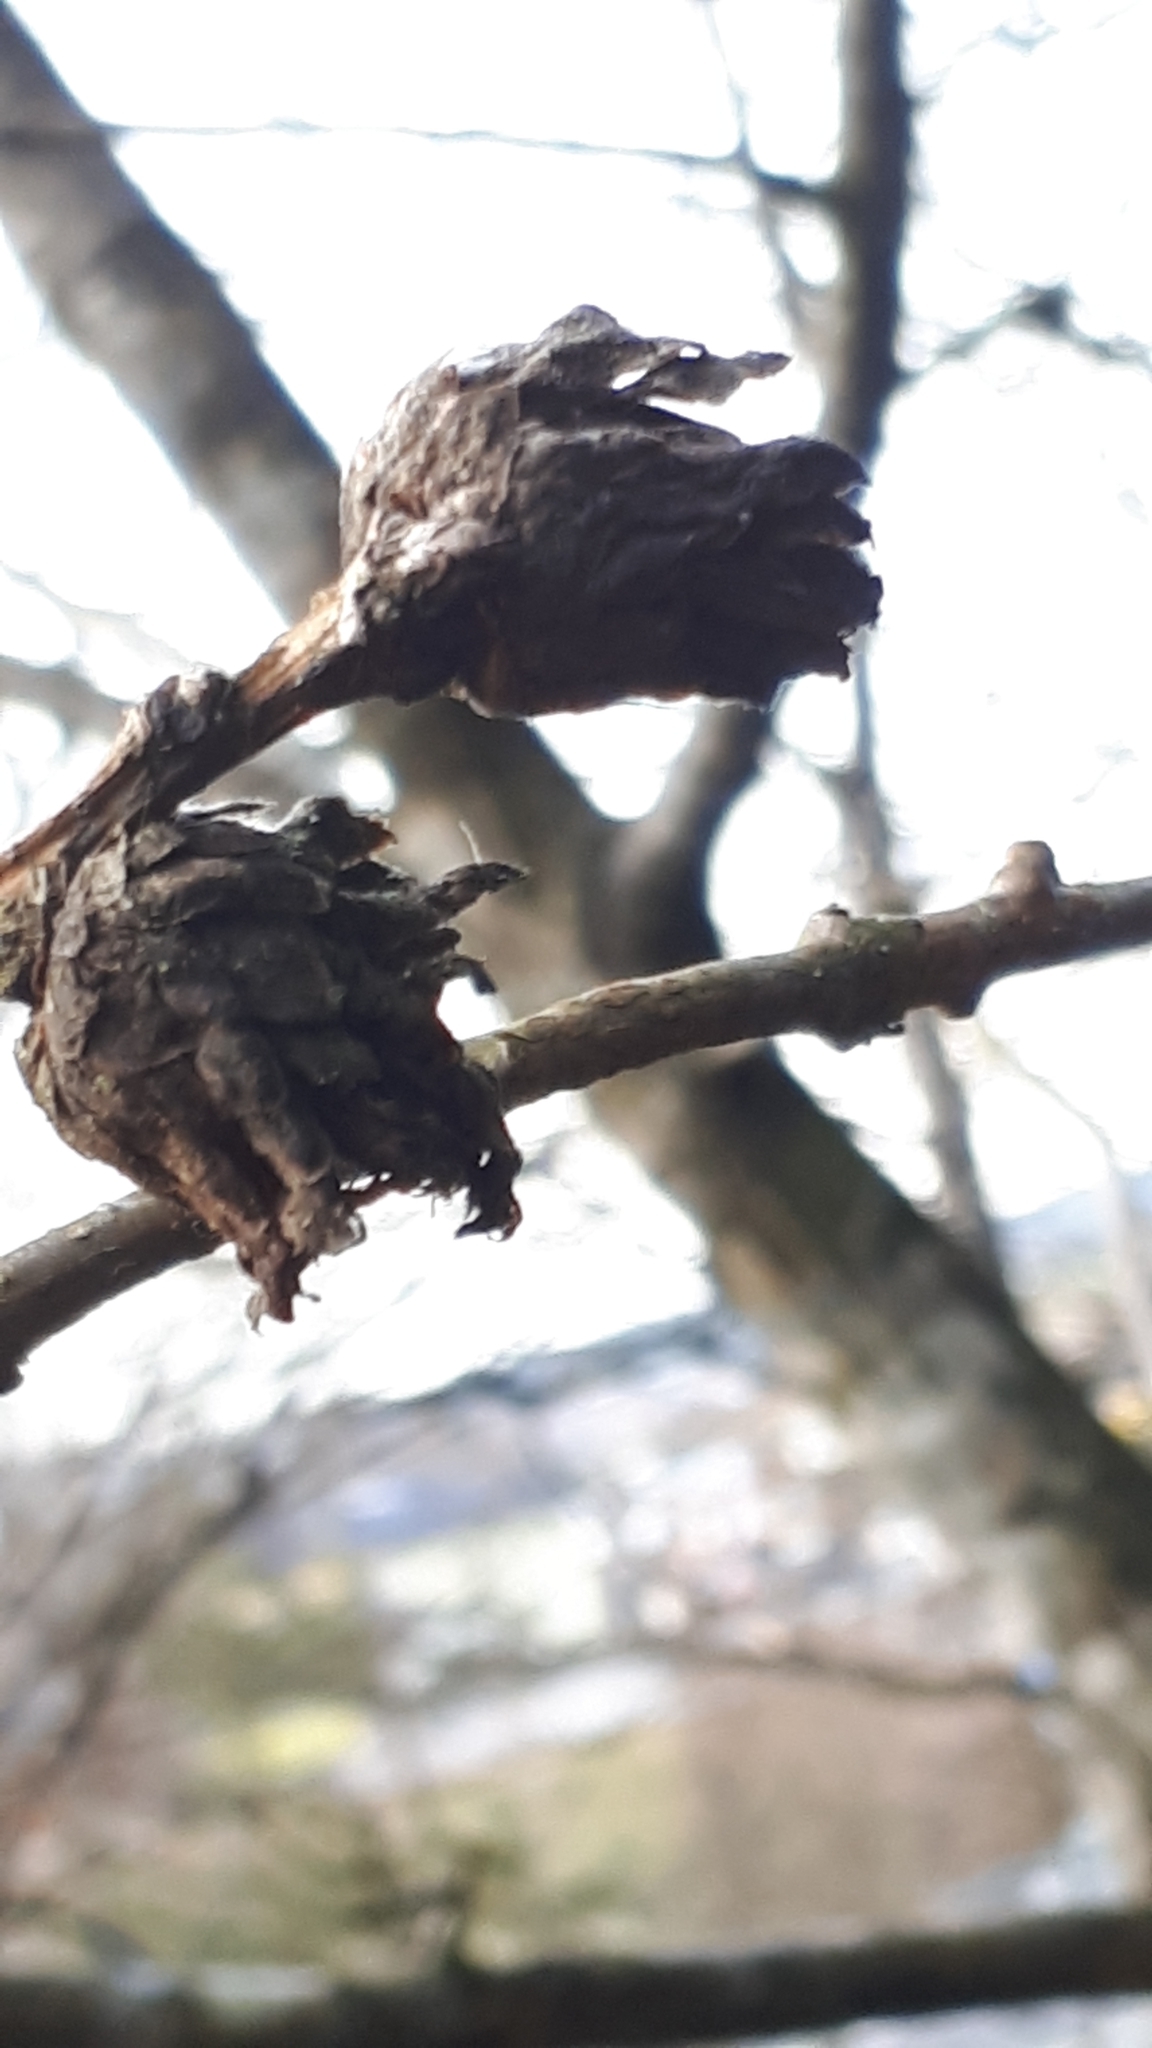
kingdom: Animalia
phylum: Arthropoda
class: Insecta
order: Hymenoptera
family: Cynipidae
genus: Andricus
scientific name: Andricus foecundatrix
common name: Artichoke gall
